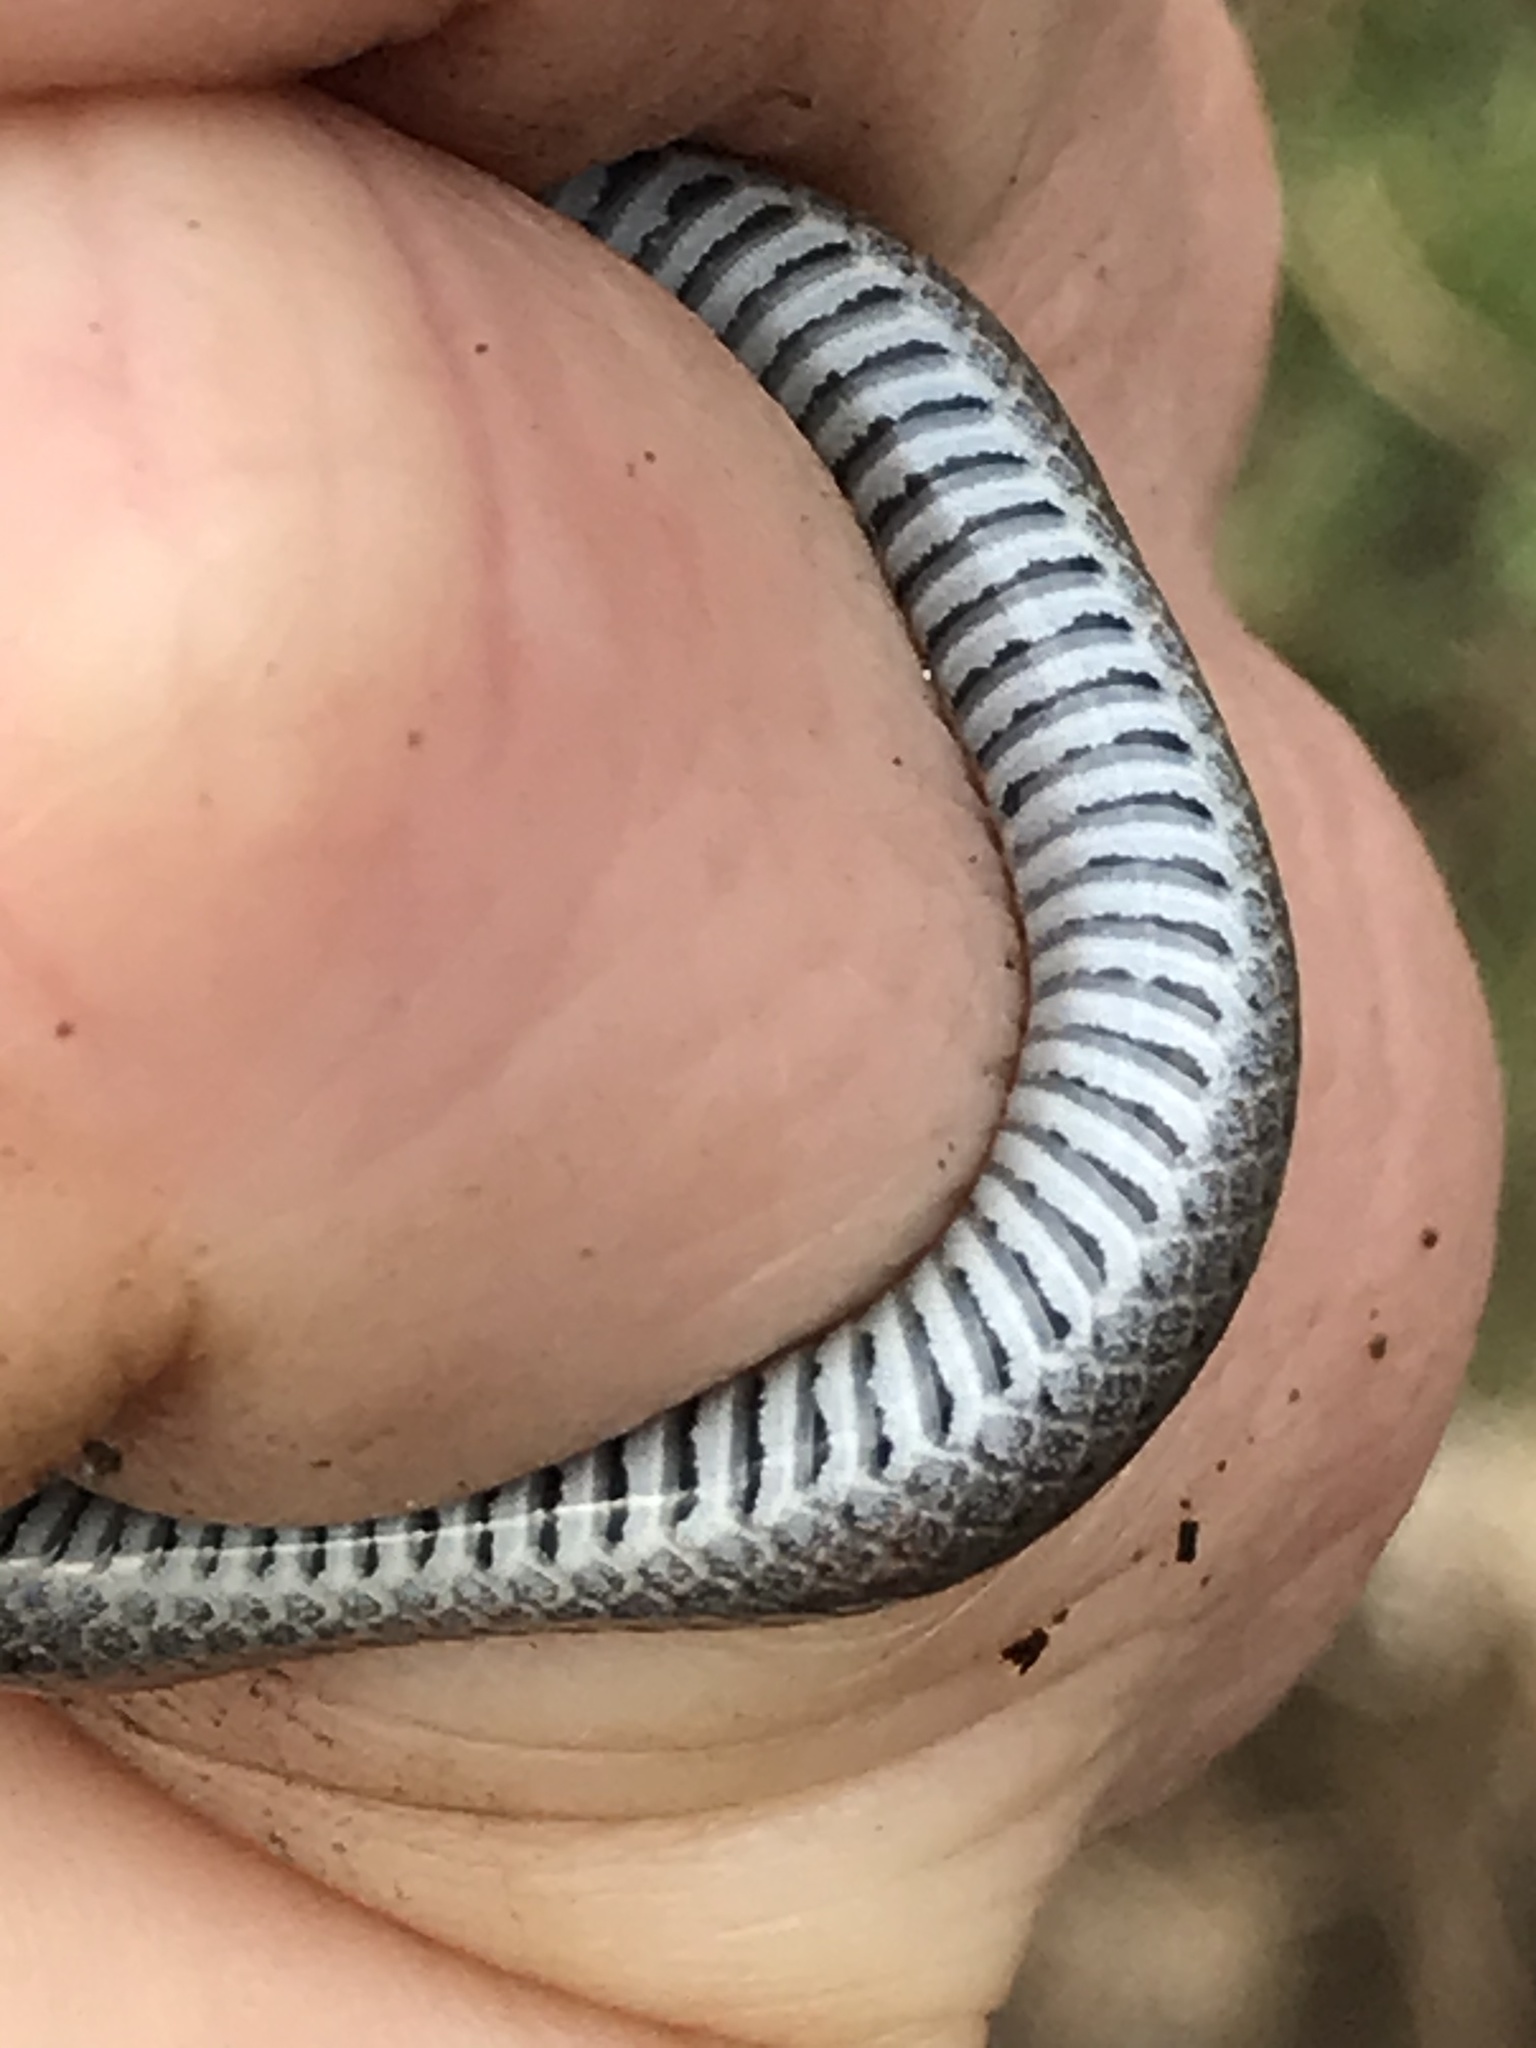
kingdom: Animalia
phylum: Chordata
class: Squamata
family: Colubridae
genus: Contia
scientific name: Contia tenuis
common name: Sharptail snake
